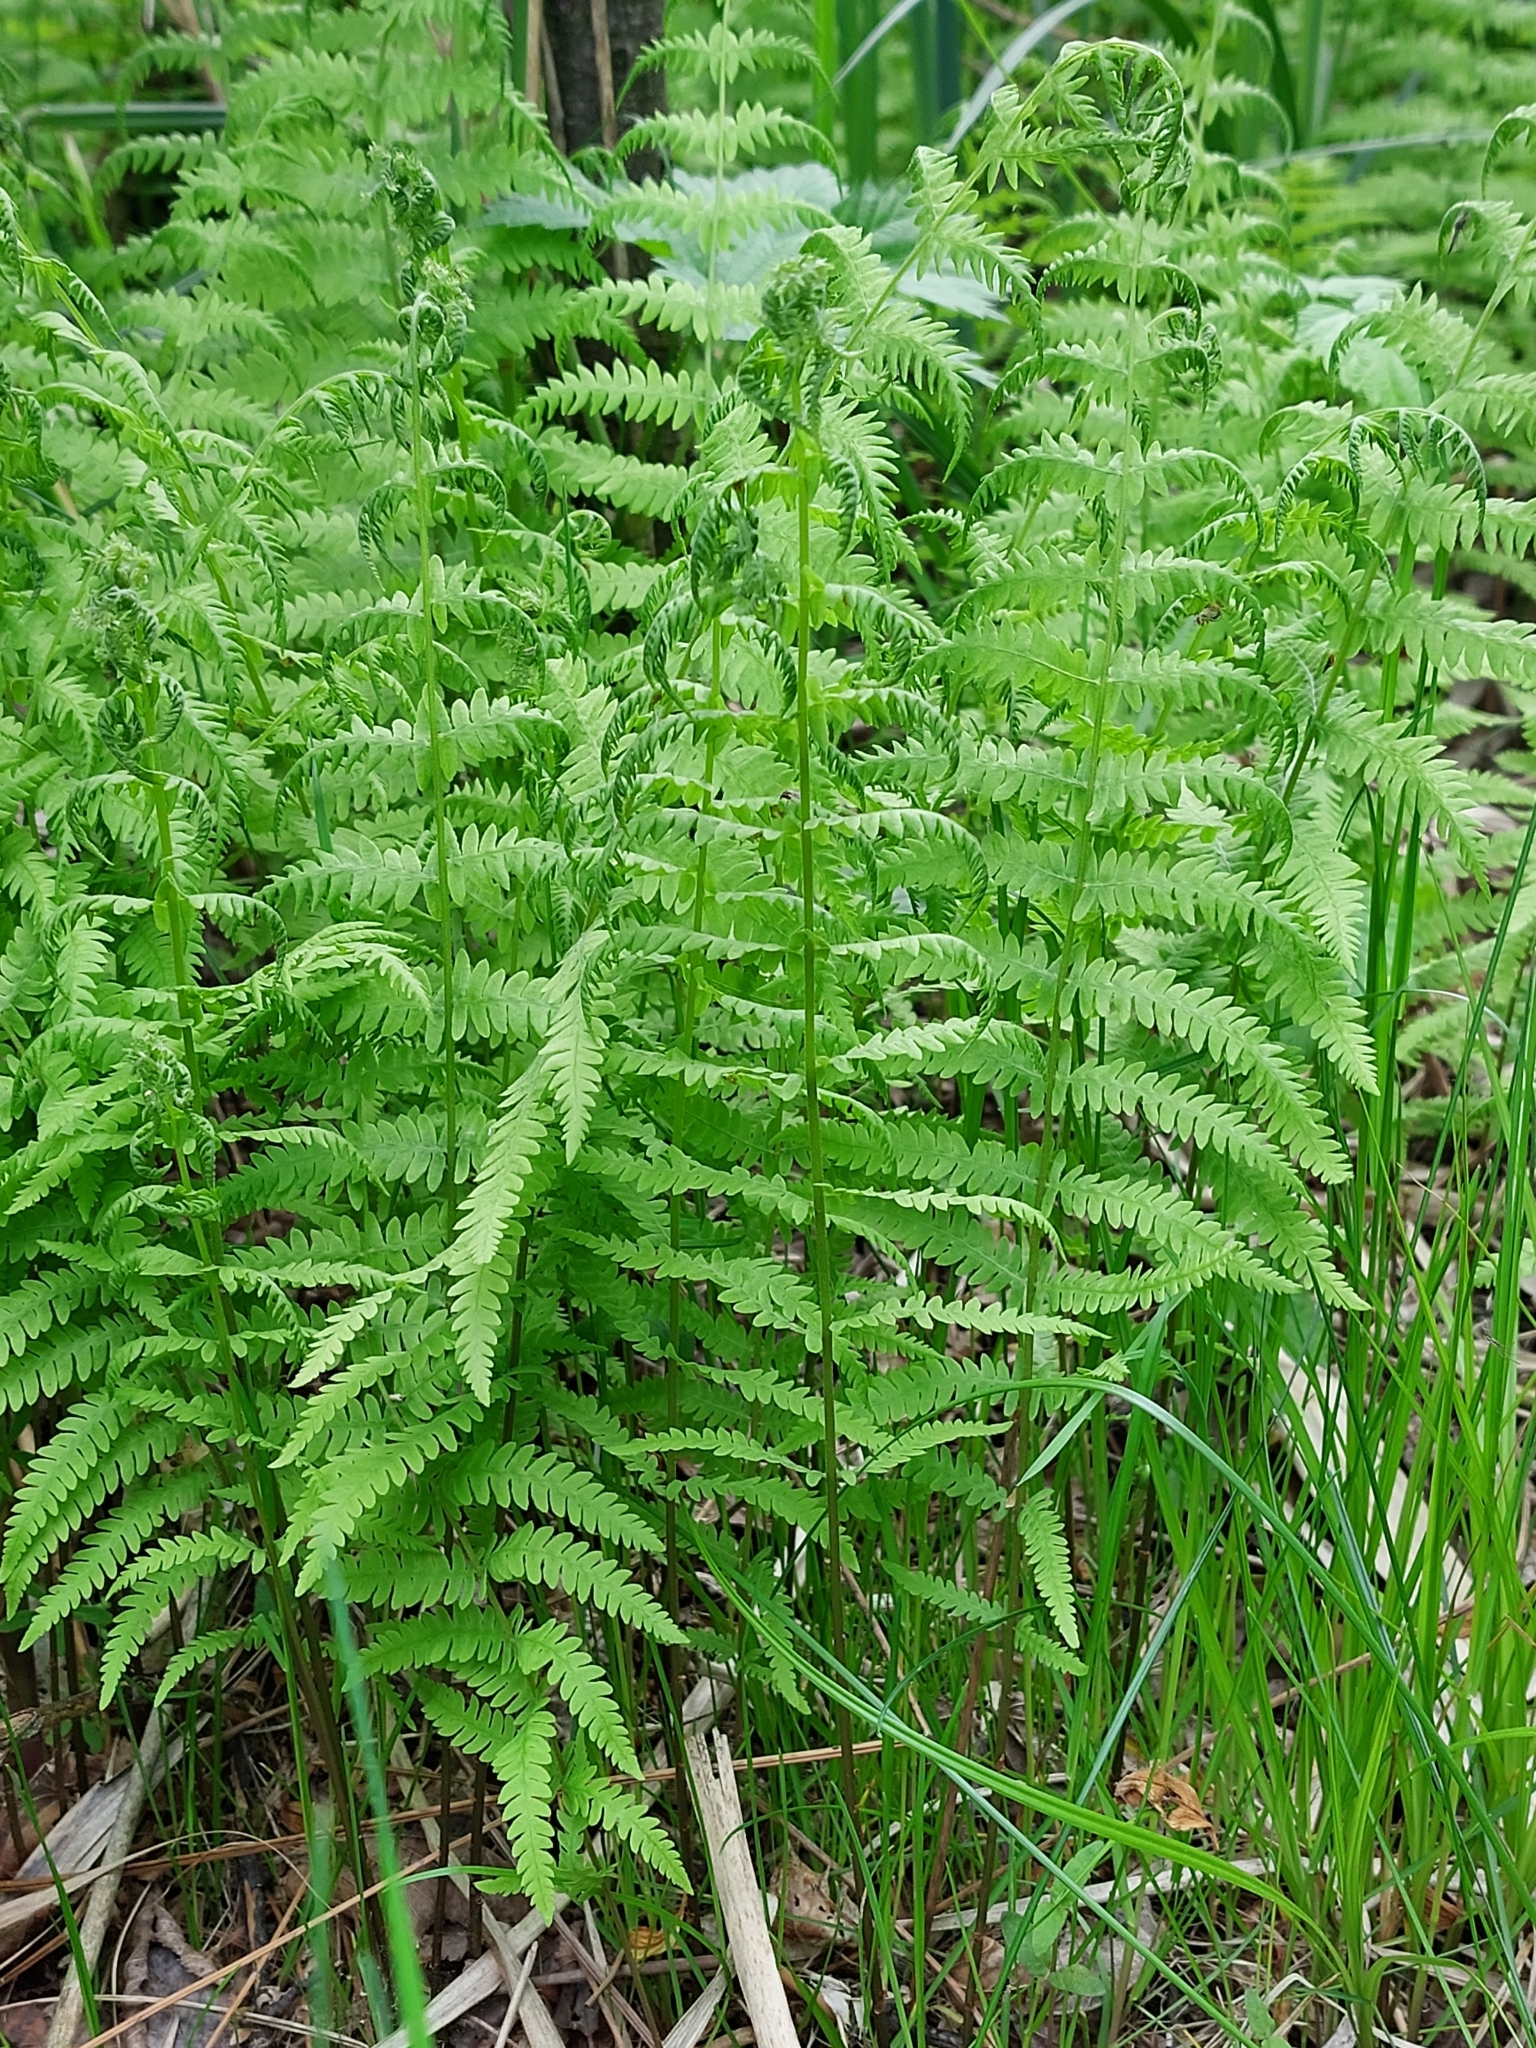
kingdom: Plantae
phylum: Tracheophyta
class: Polypodiopsida
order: Polypodiales
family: Thelypteridaceae
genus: Thelypteris
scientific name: Thelypteris palustris
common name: Marsh fern
